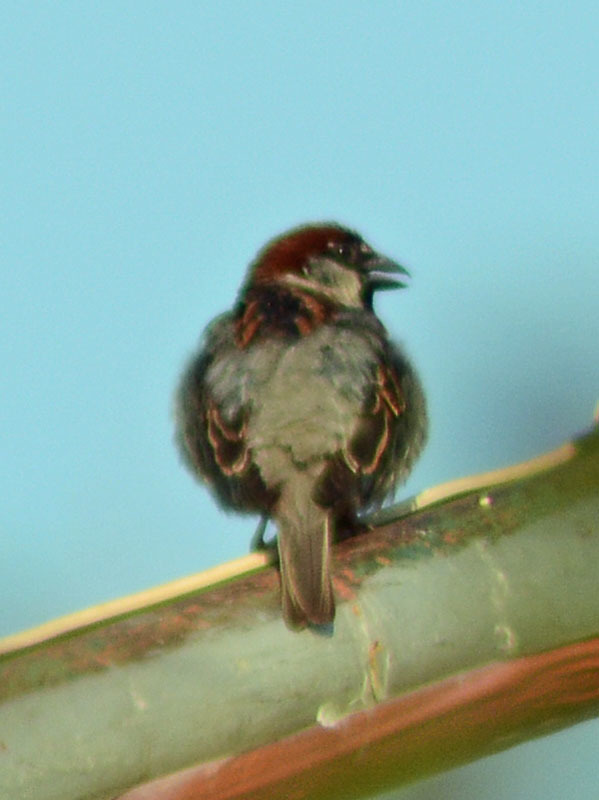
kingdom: Animalia
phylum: Chordata
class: Aves
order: Passeriformes
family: Passeridae
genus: Passer
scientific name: Passer domesticus
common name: House sparrow
